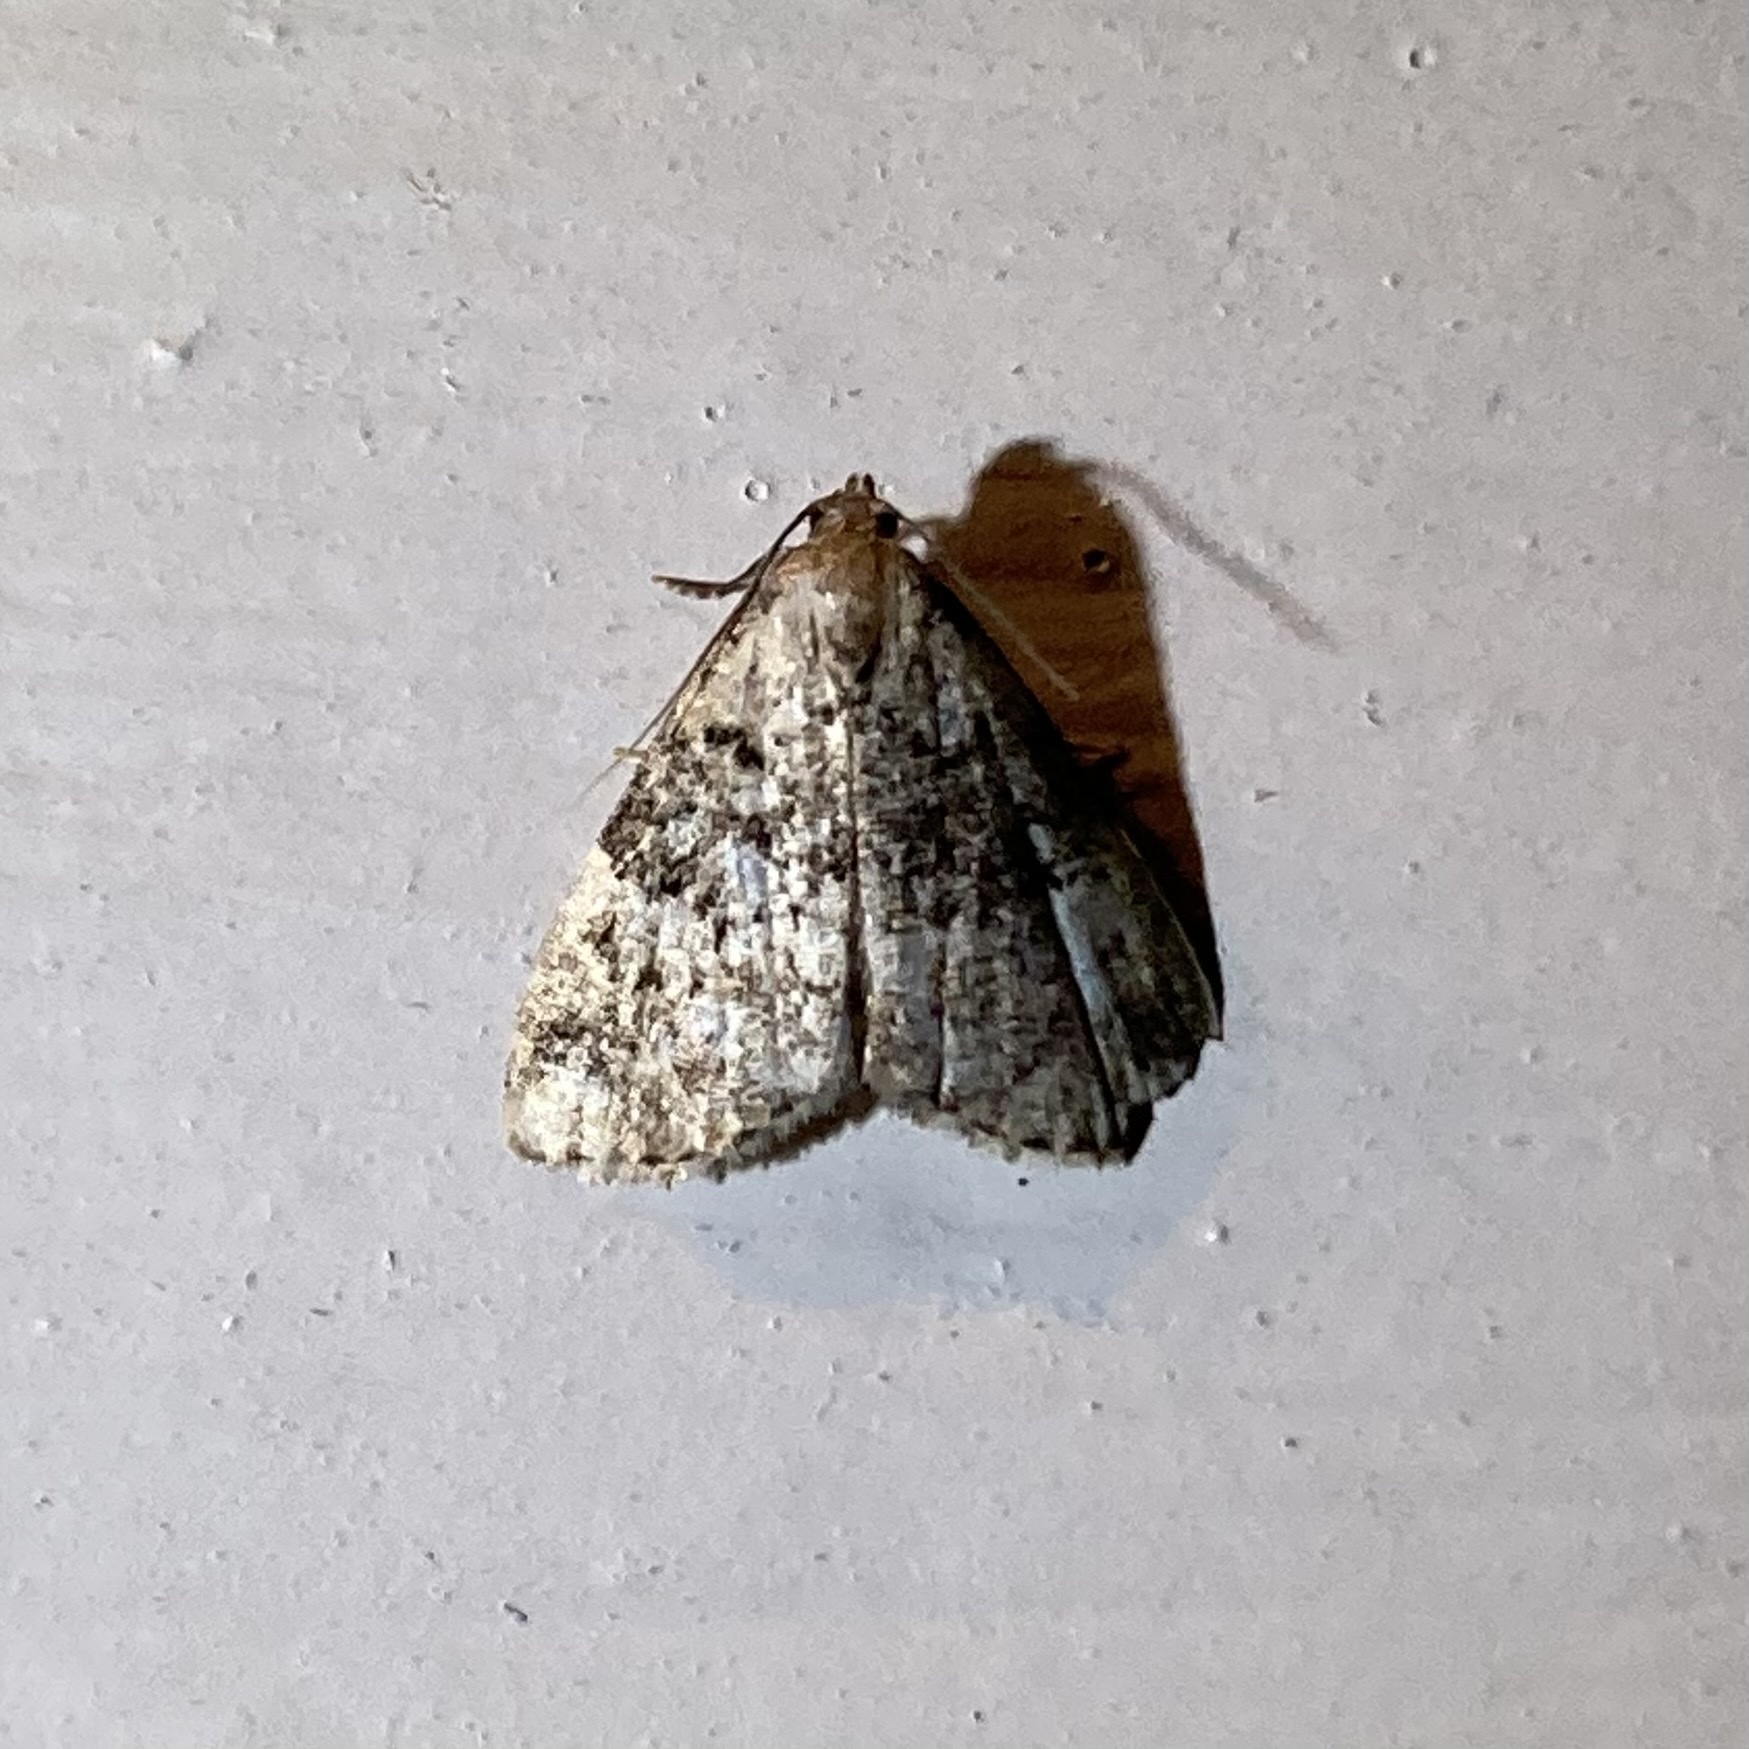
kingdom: Animalia
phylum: Arthropoda
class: Insecta
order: Lepidoptera
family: Erebidae
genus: Dyspyralis
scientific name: Dyspyralis illocata
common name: Visitation moth
